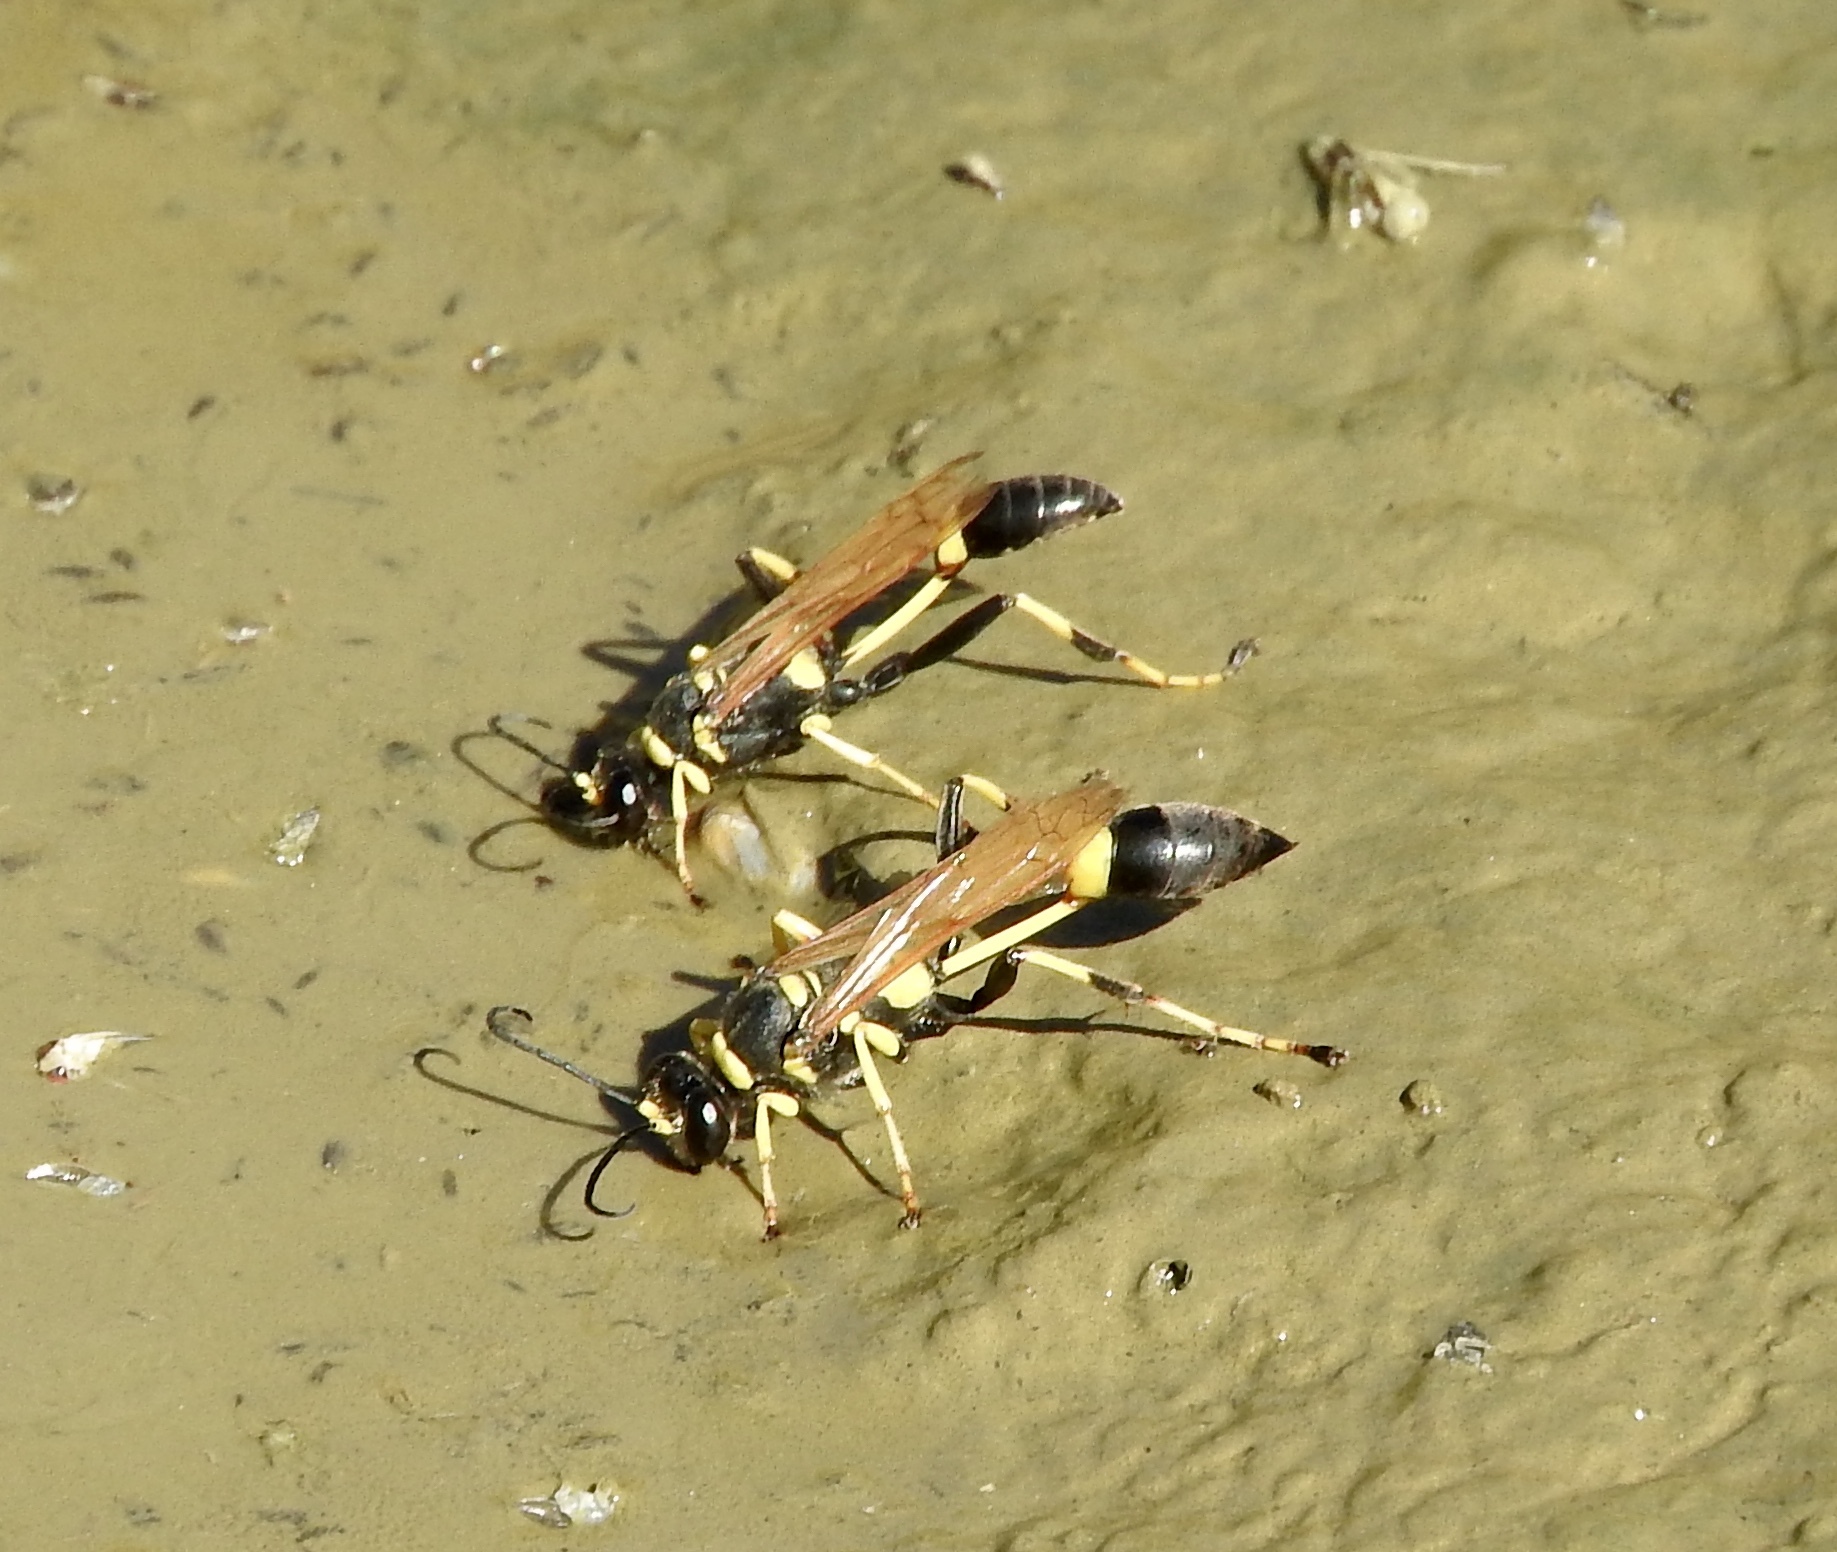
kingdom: Animalia
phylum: Arthropoda
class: Insecta
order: Hymenoptera
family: Sphecidae
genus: Sceliphron
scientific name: Sceliphron caementarium
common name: Mud dauber
